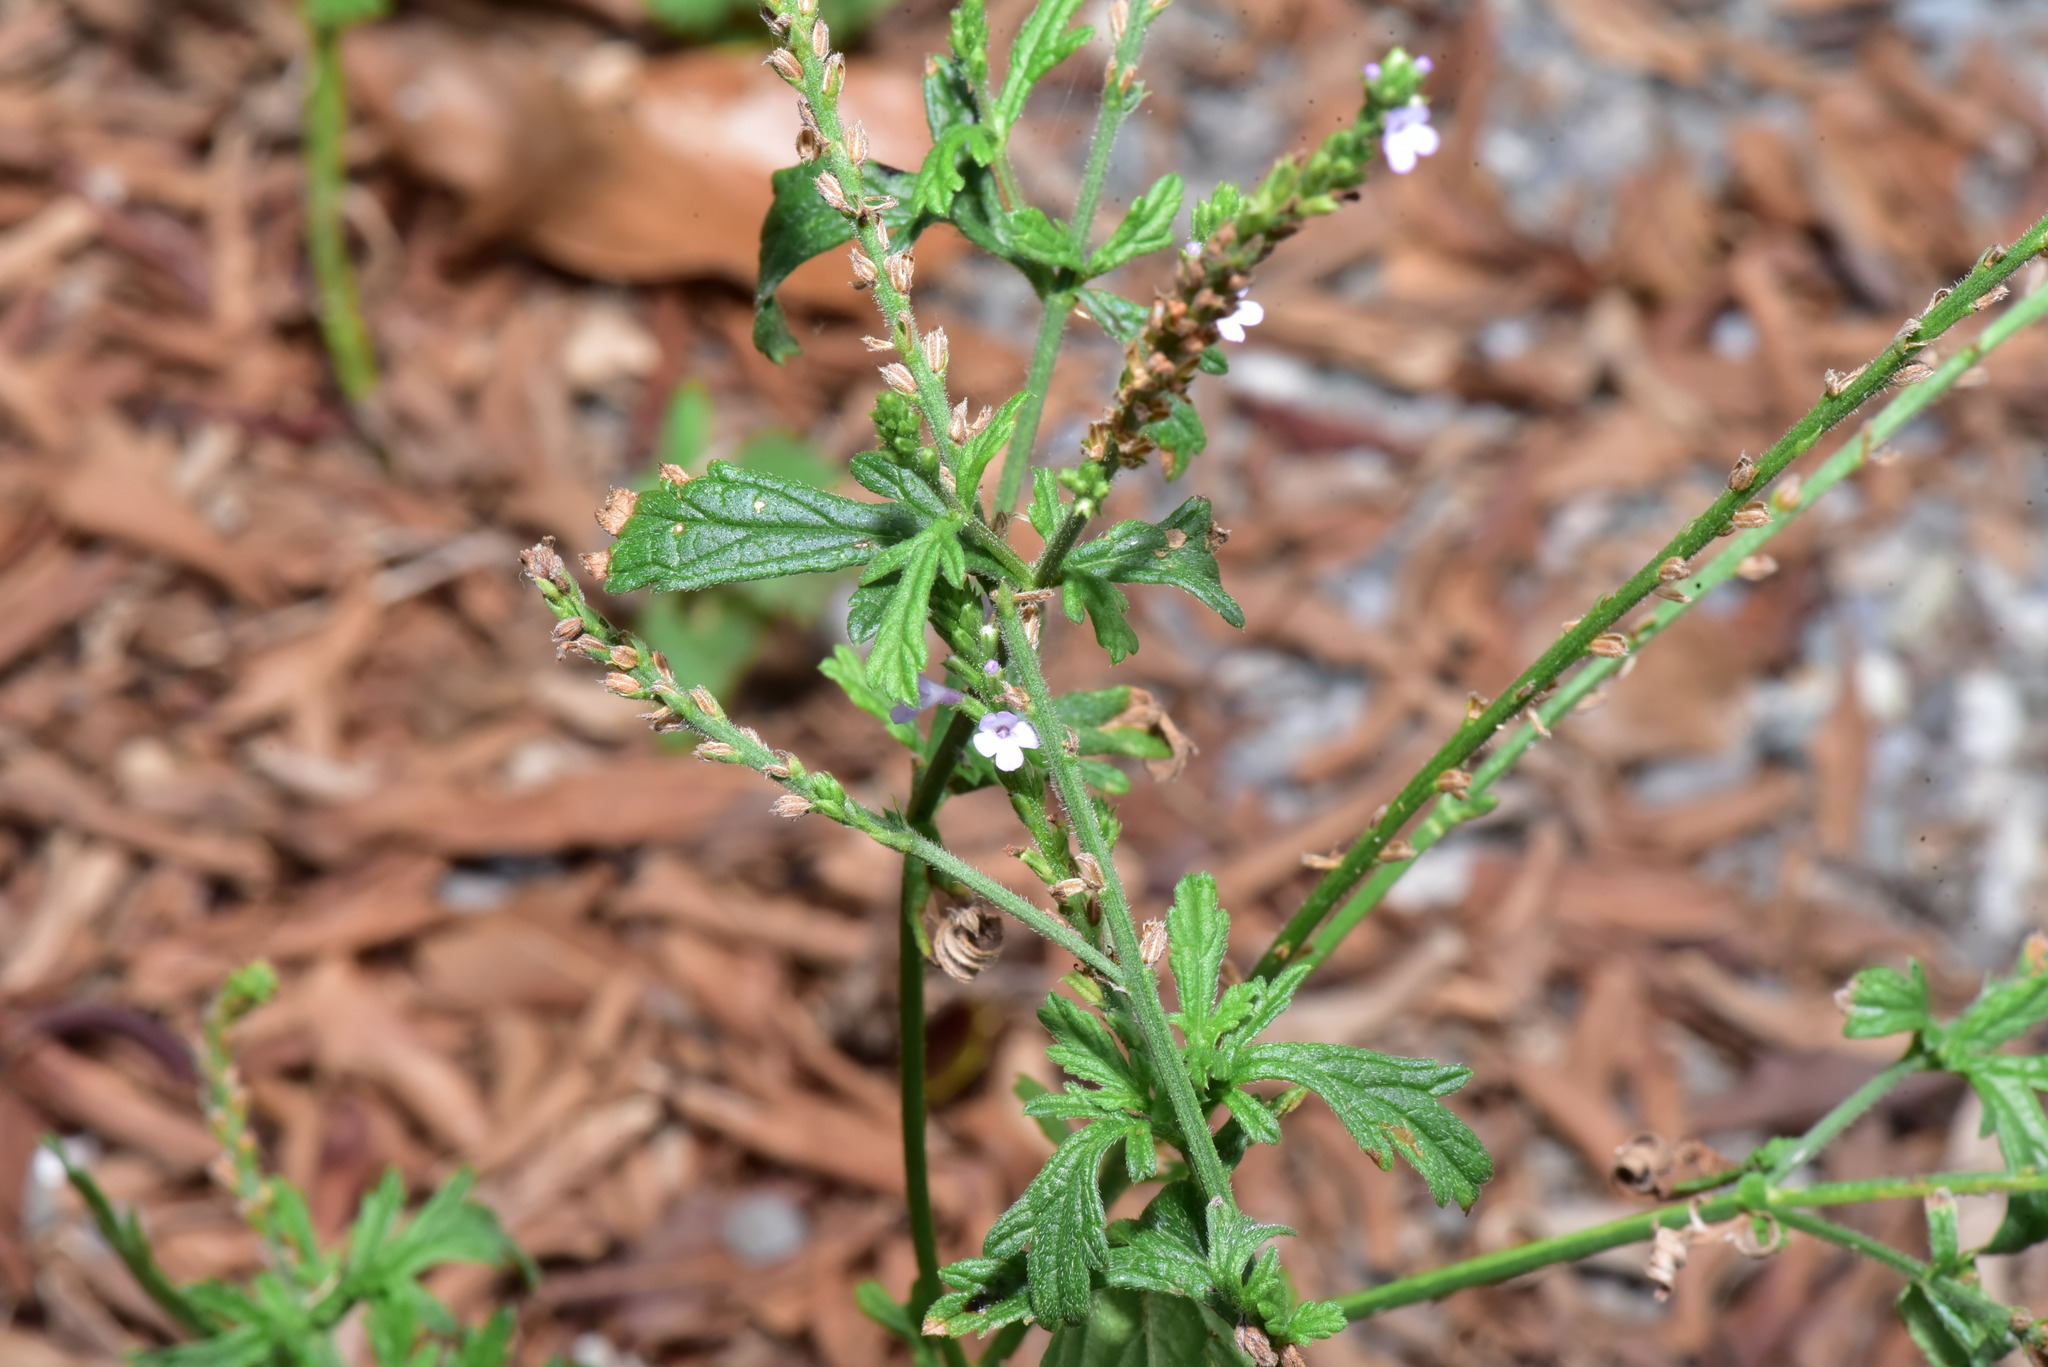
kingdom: Plantae
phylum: Tracheophyta
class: Magnoliopsida
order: Lamiales
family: Verbenaceae
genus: Verbena
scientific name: Verbena officinalis
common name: Vervain
